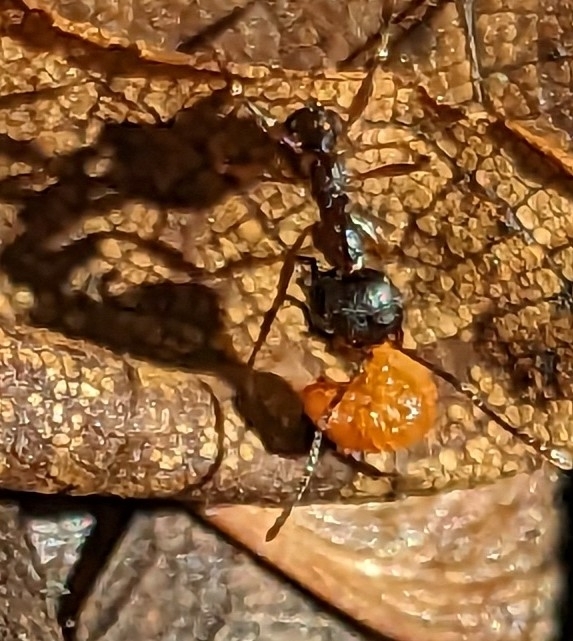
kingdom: Animalia
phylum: Arthropoda
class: Insecta
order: Hymenoptera
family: Formicidae
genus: Aphaenogaster
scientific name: Aphaenogaster
